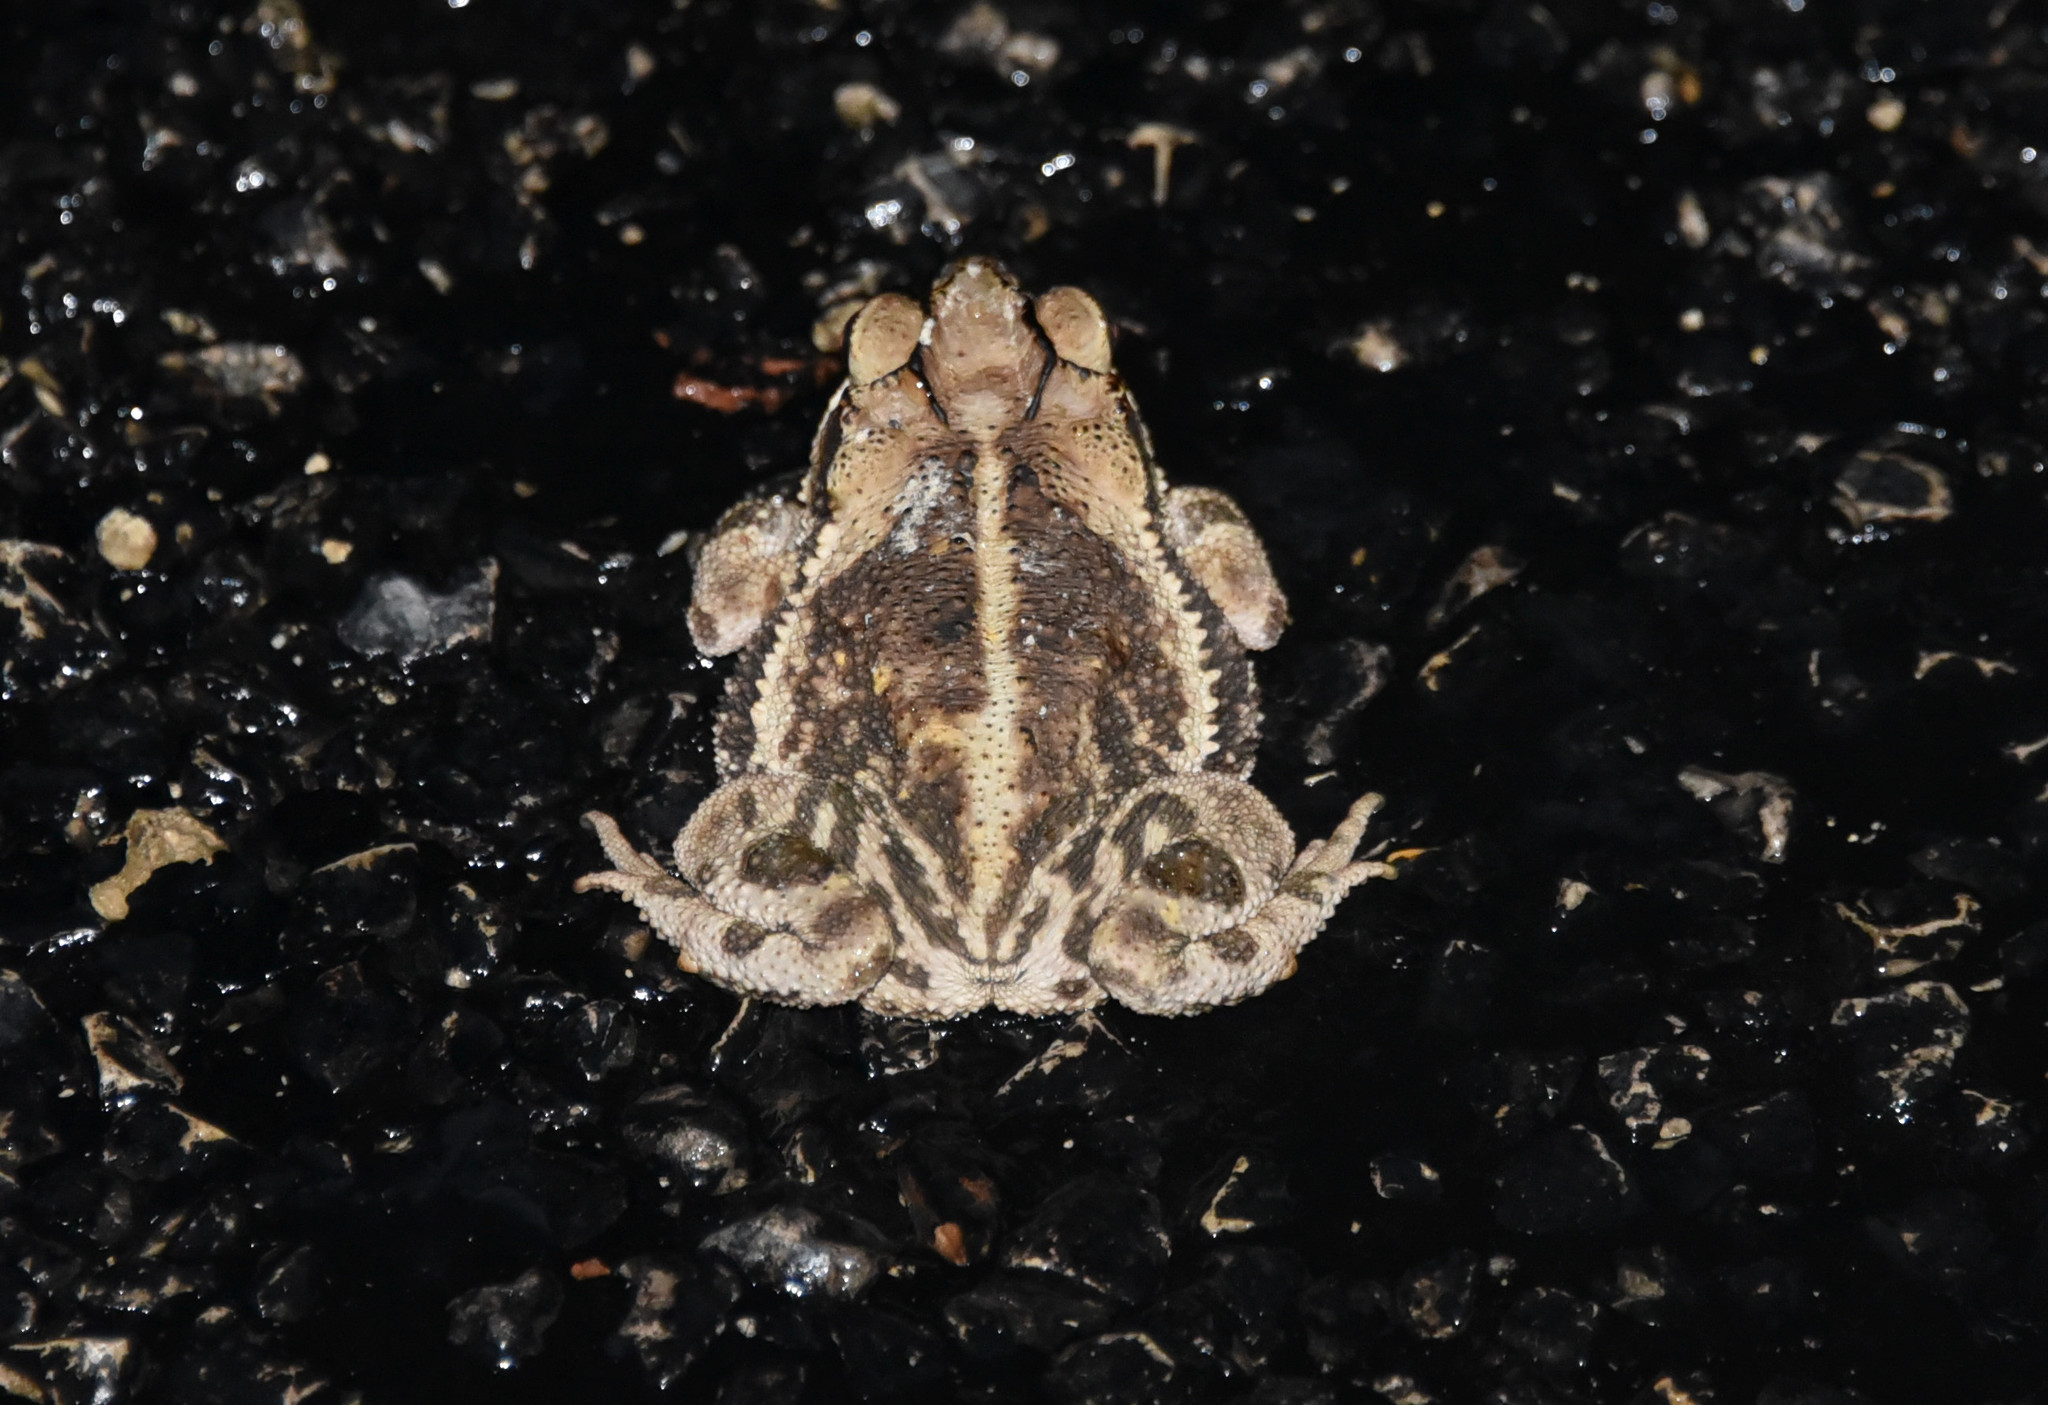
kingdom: Animalia
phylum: Chordata
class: Amphibia
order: Anura
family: Bufonidae
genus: Incilius
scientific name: Incilius nebulifer
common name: Gulf coast toad
